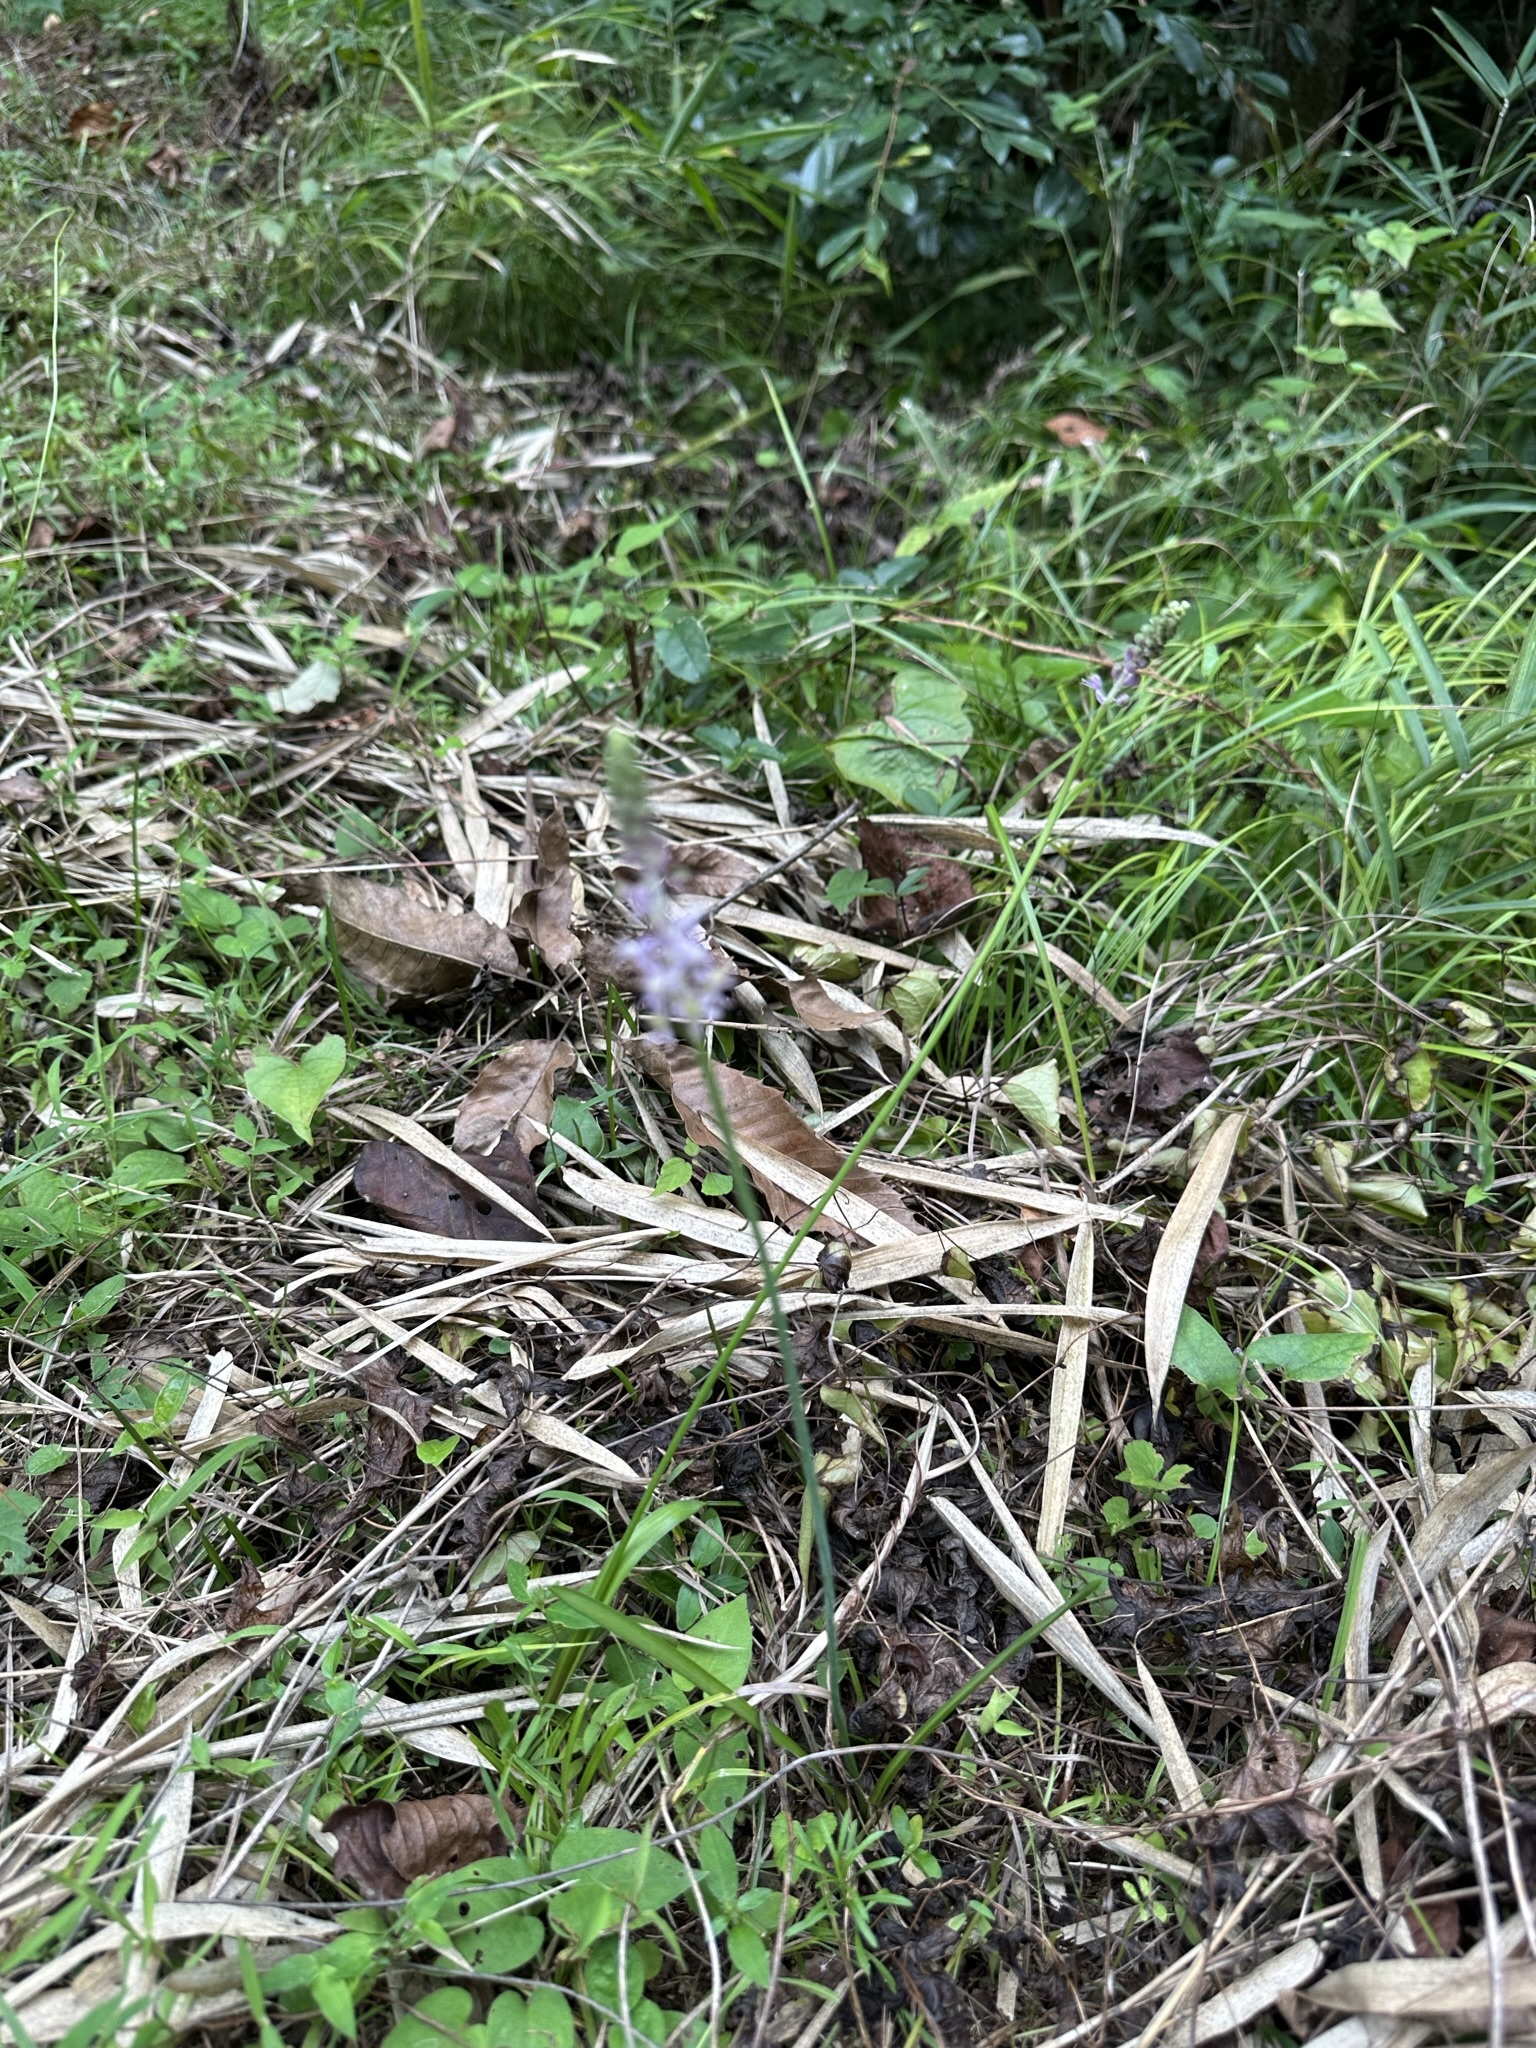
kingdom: Plantae
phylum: Tracheophyta
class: Liliopsida
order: Asparagales
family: Asparagaceae
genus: Barnardia
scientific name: Barnardia japonica
